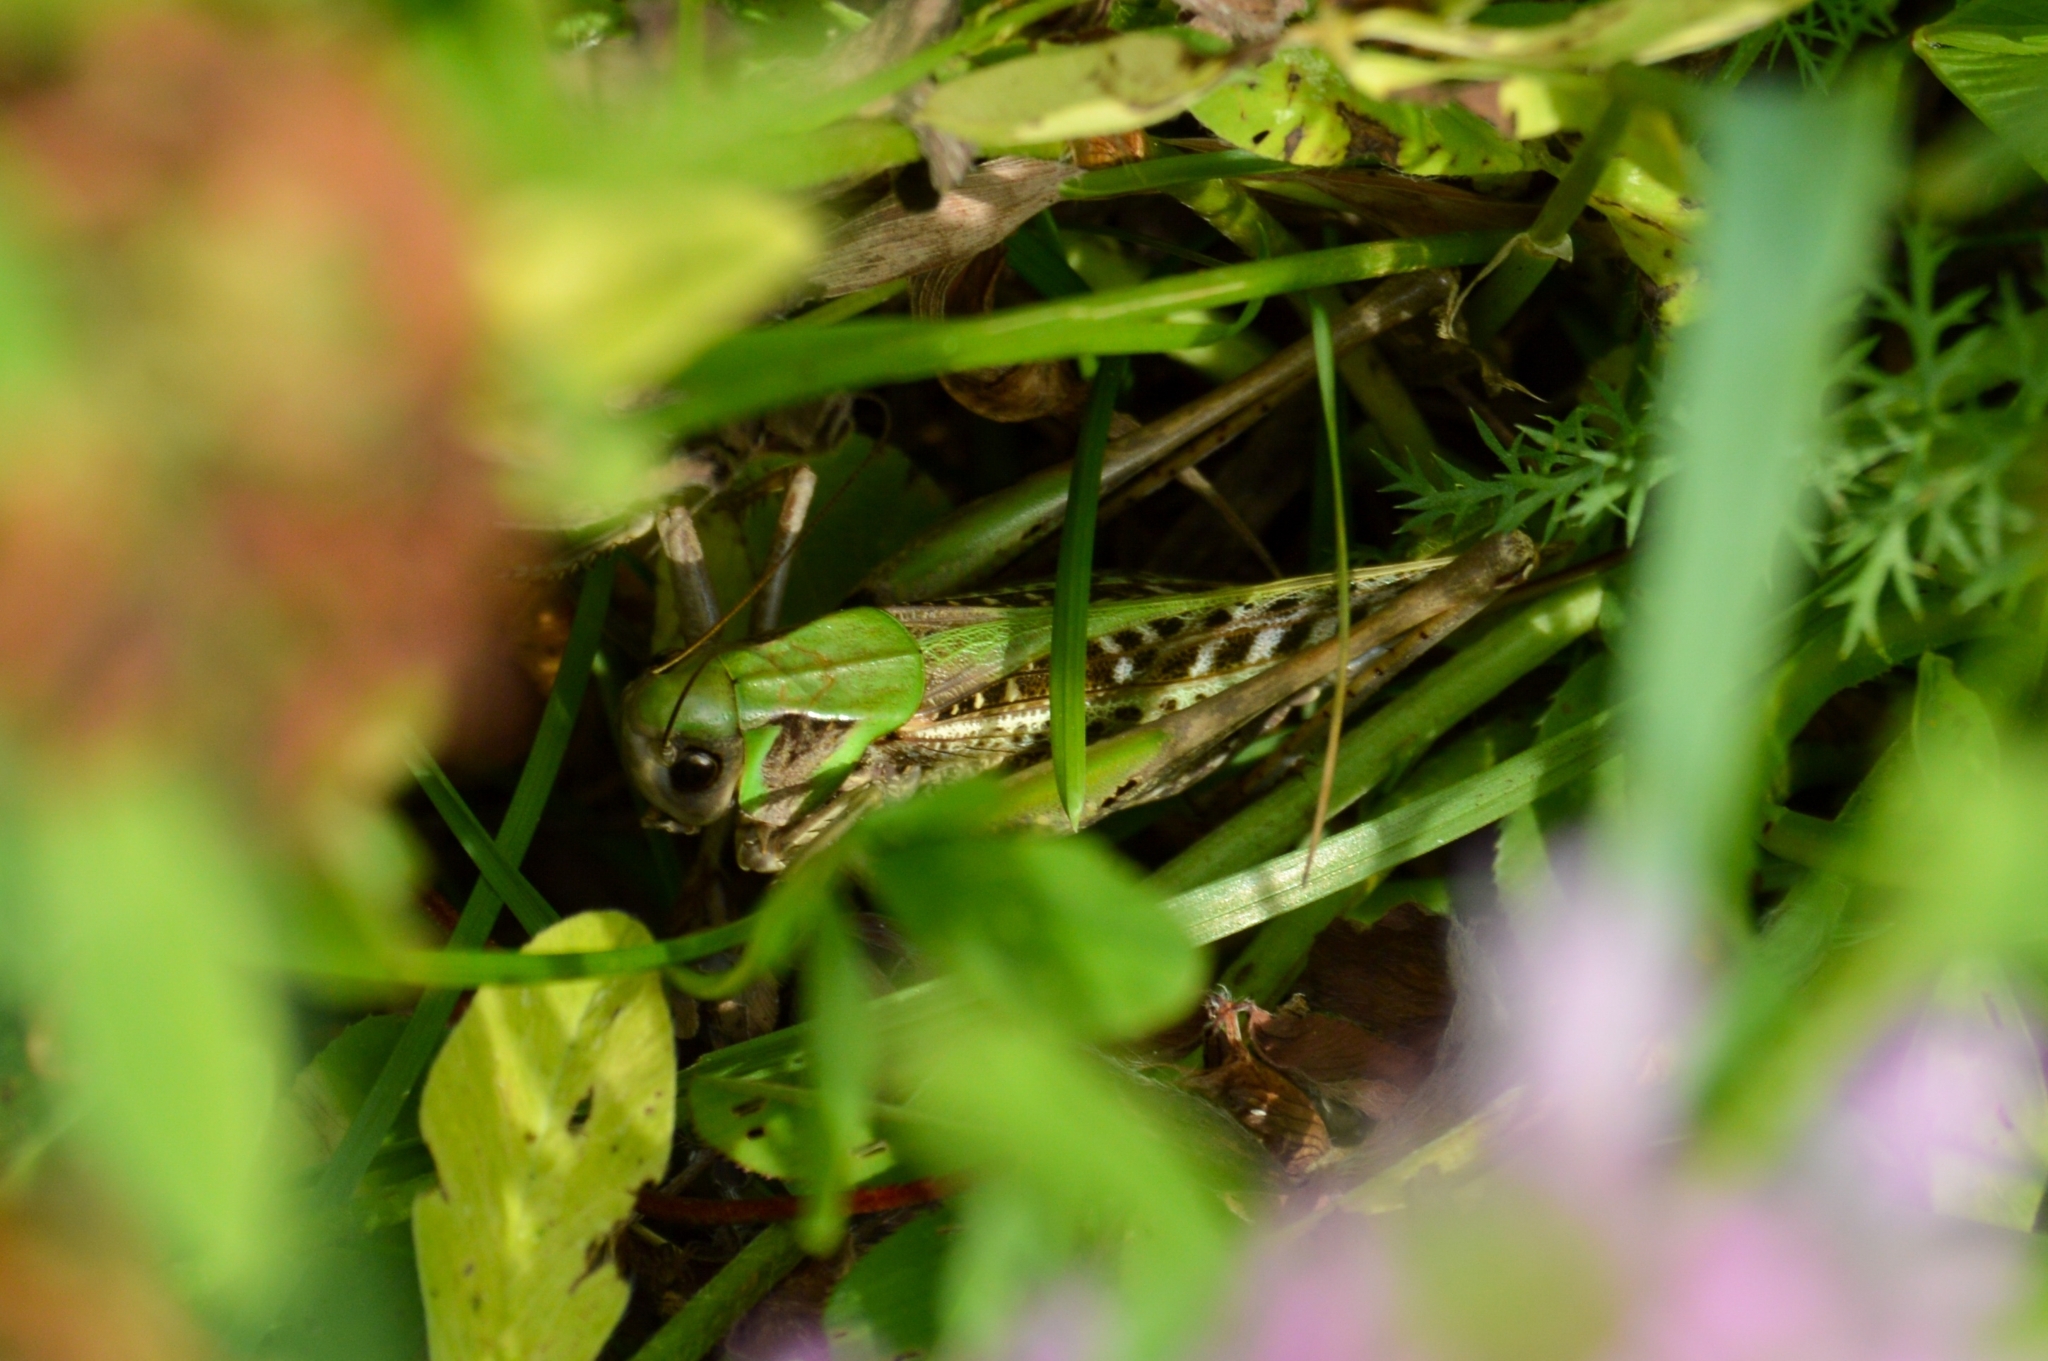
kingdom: Animalia
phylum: Arthropoda
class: Insecta
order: Orthoptera
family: Tettigoniidae
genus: Decticus
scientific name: Decticus verrucivorus
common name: Wart-biter
